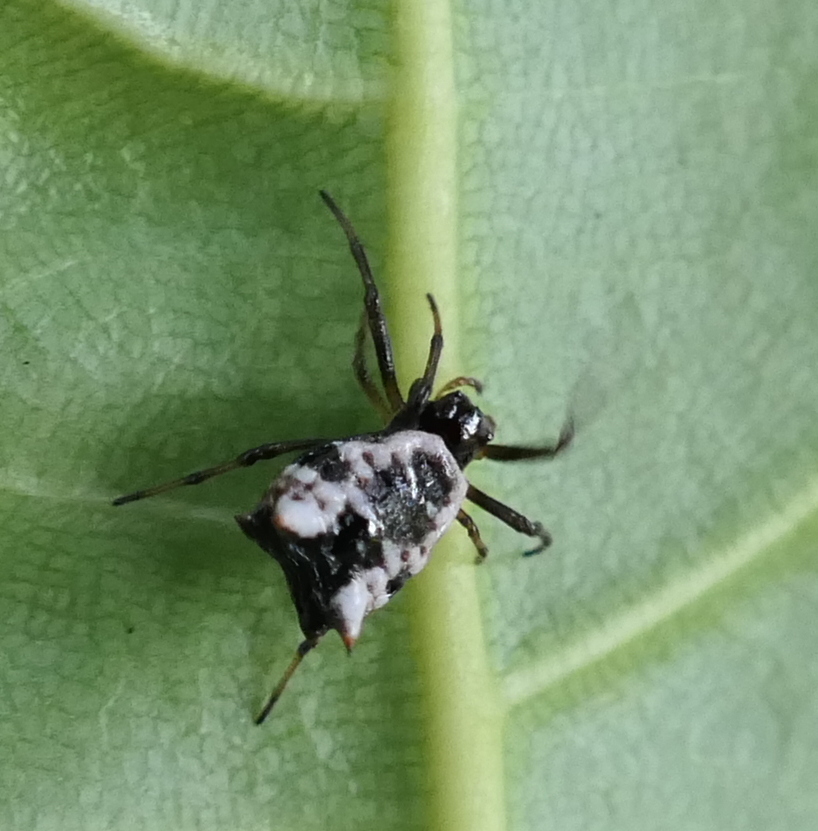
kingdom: Animalia
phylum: Arthropoda
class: Arachnida
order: Araneae
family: Araneidae
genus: Micrathena
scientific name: Micrathena patruelis
